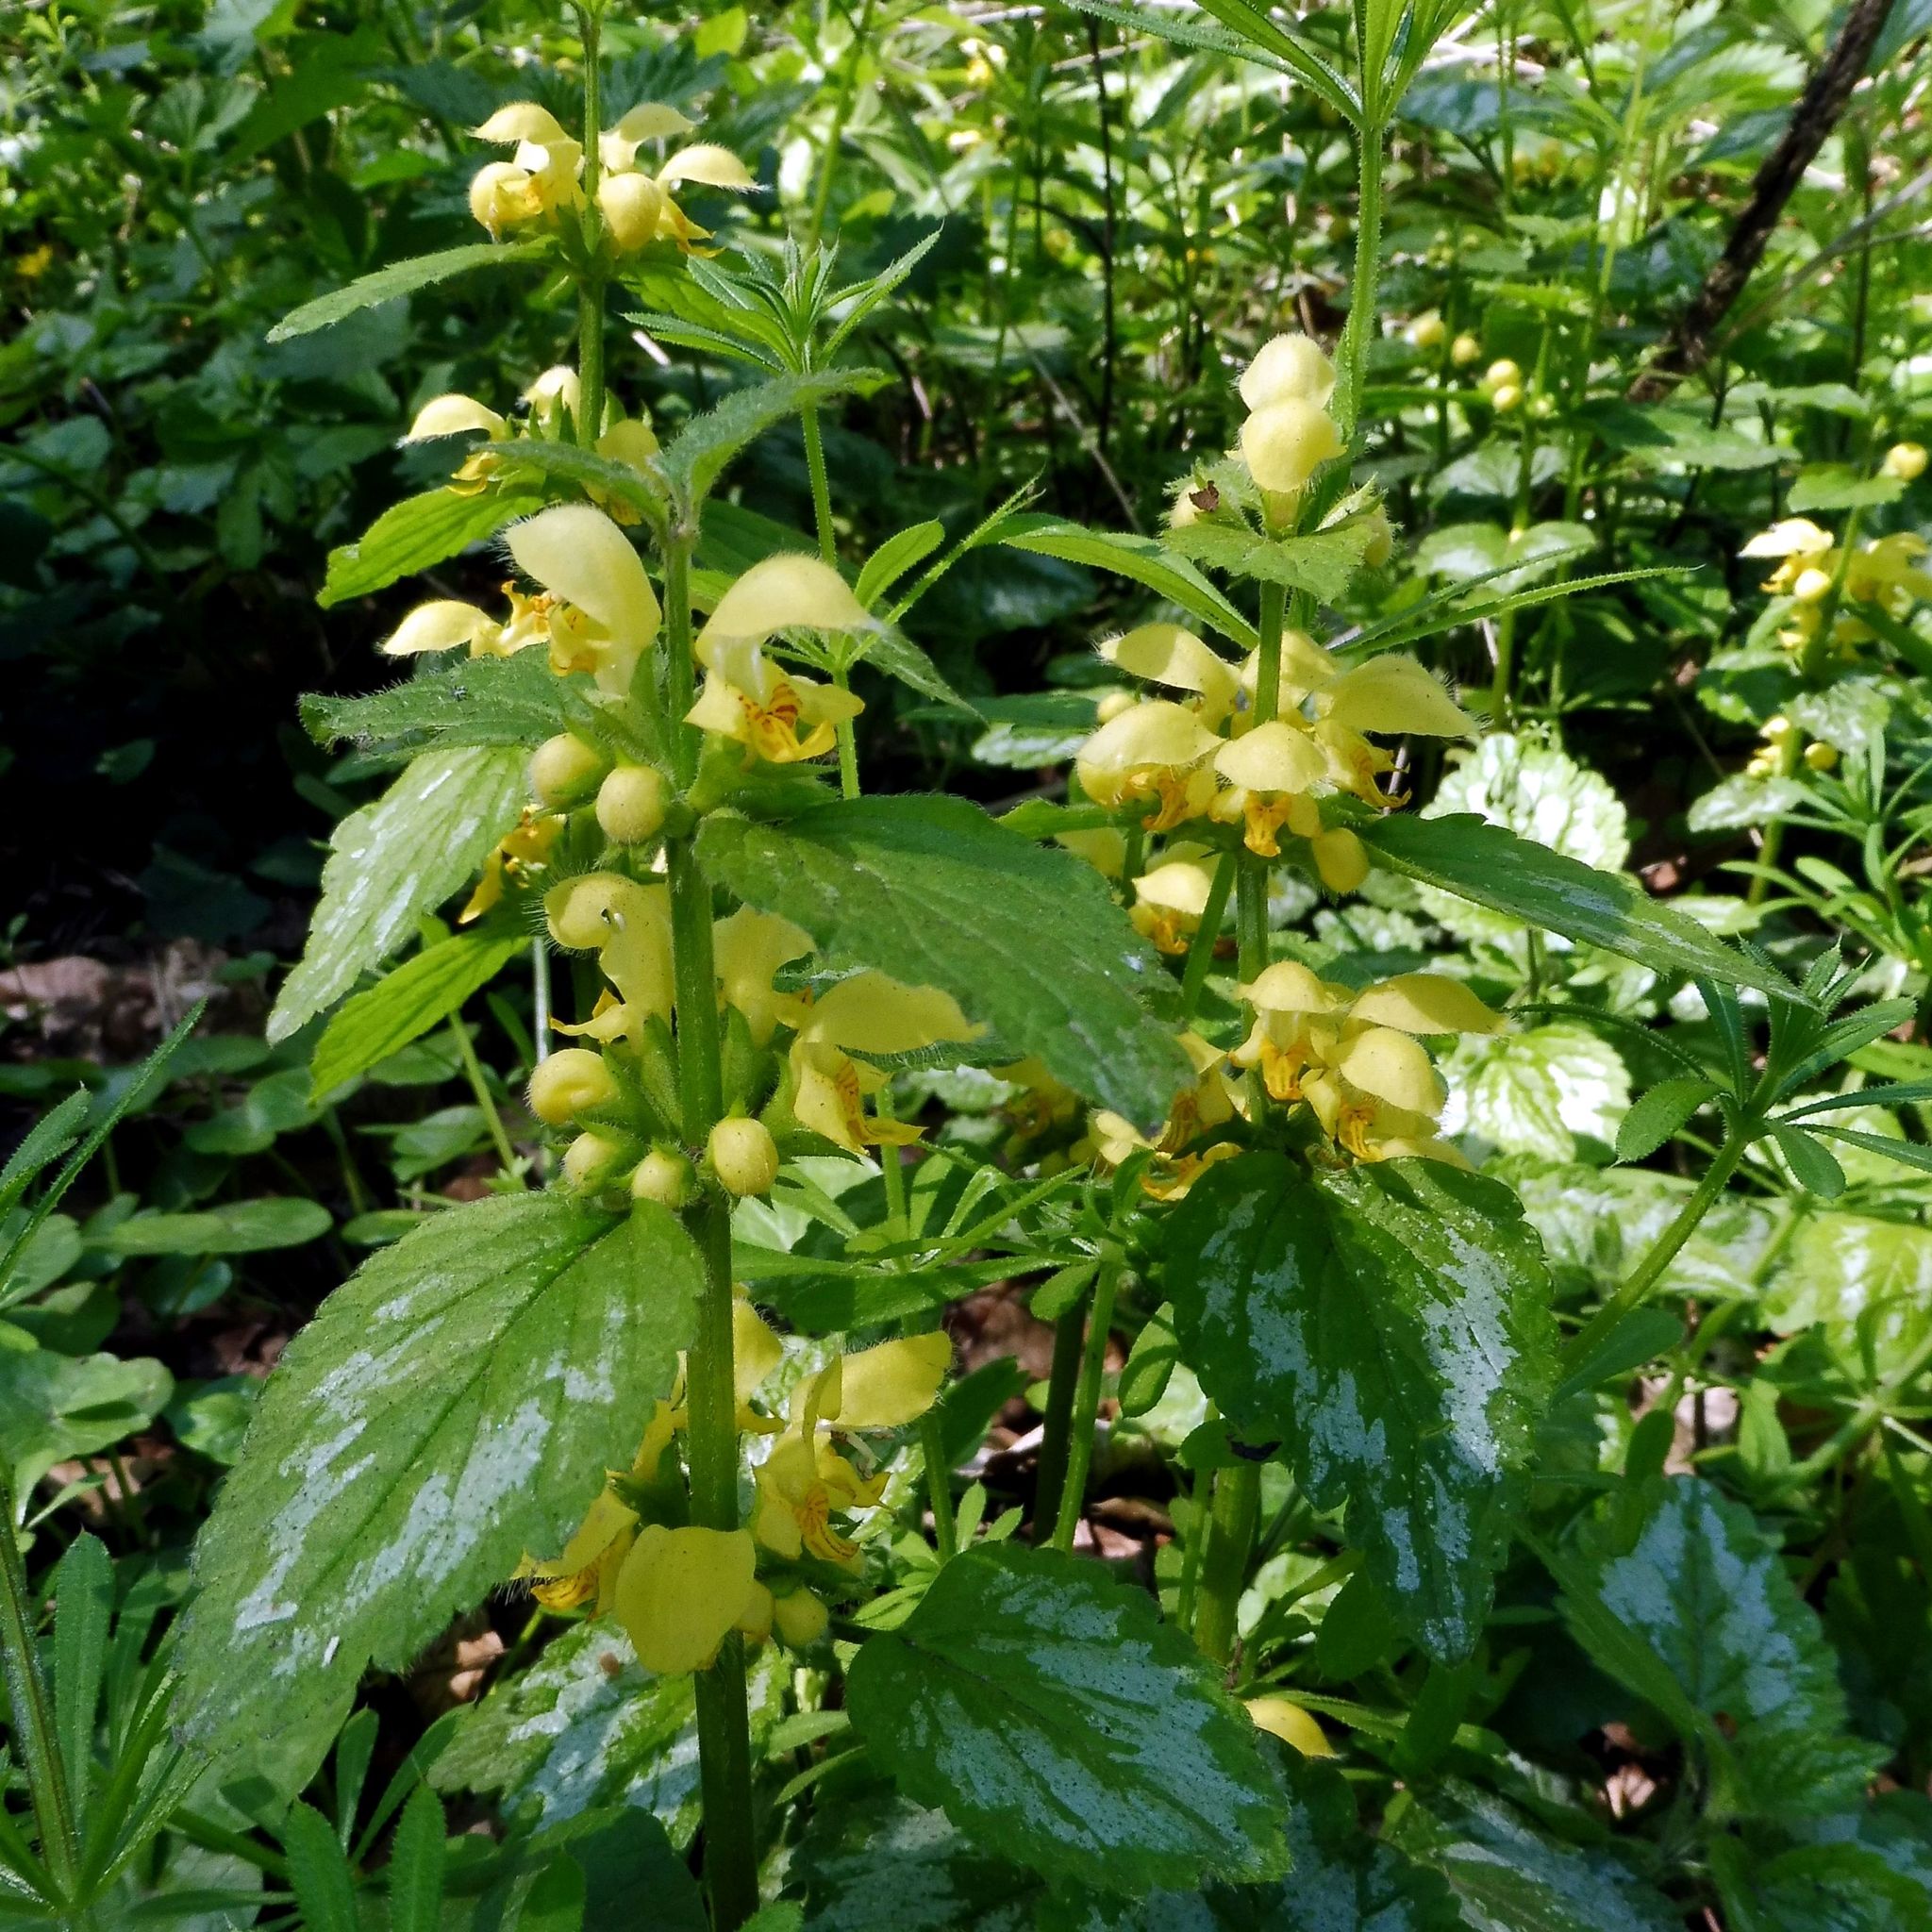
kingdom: Plantae
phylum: Tracheophyta
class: Magnoliopsida
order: Lamiales
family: Lamiaceae
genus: Lamium
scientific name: Lamium galeobdolon
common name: Yellow archangel
